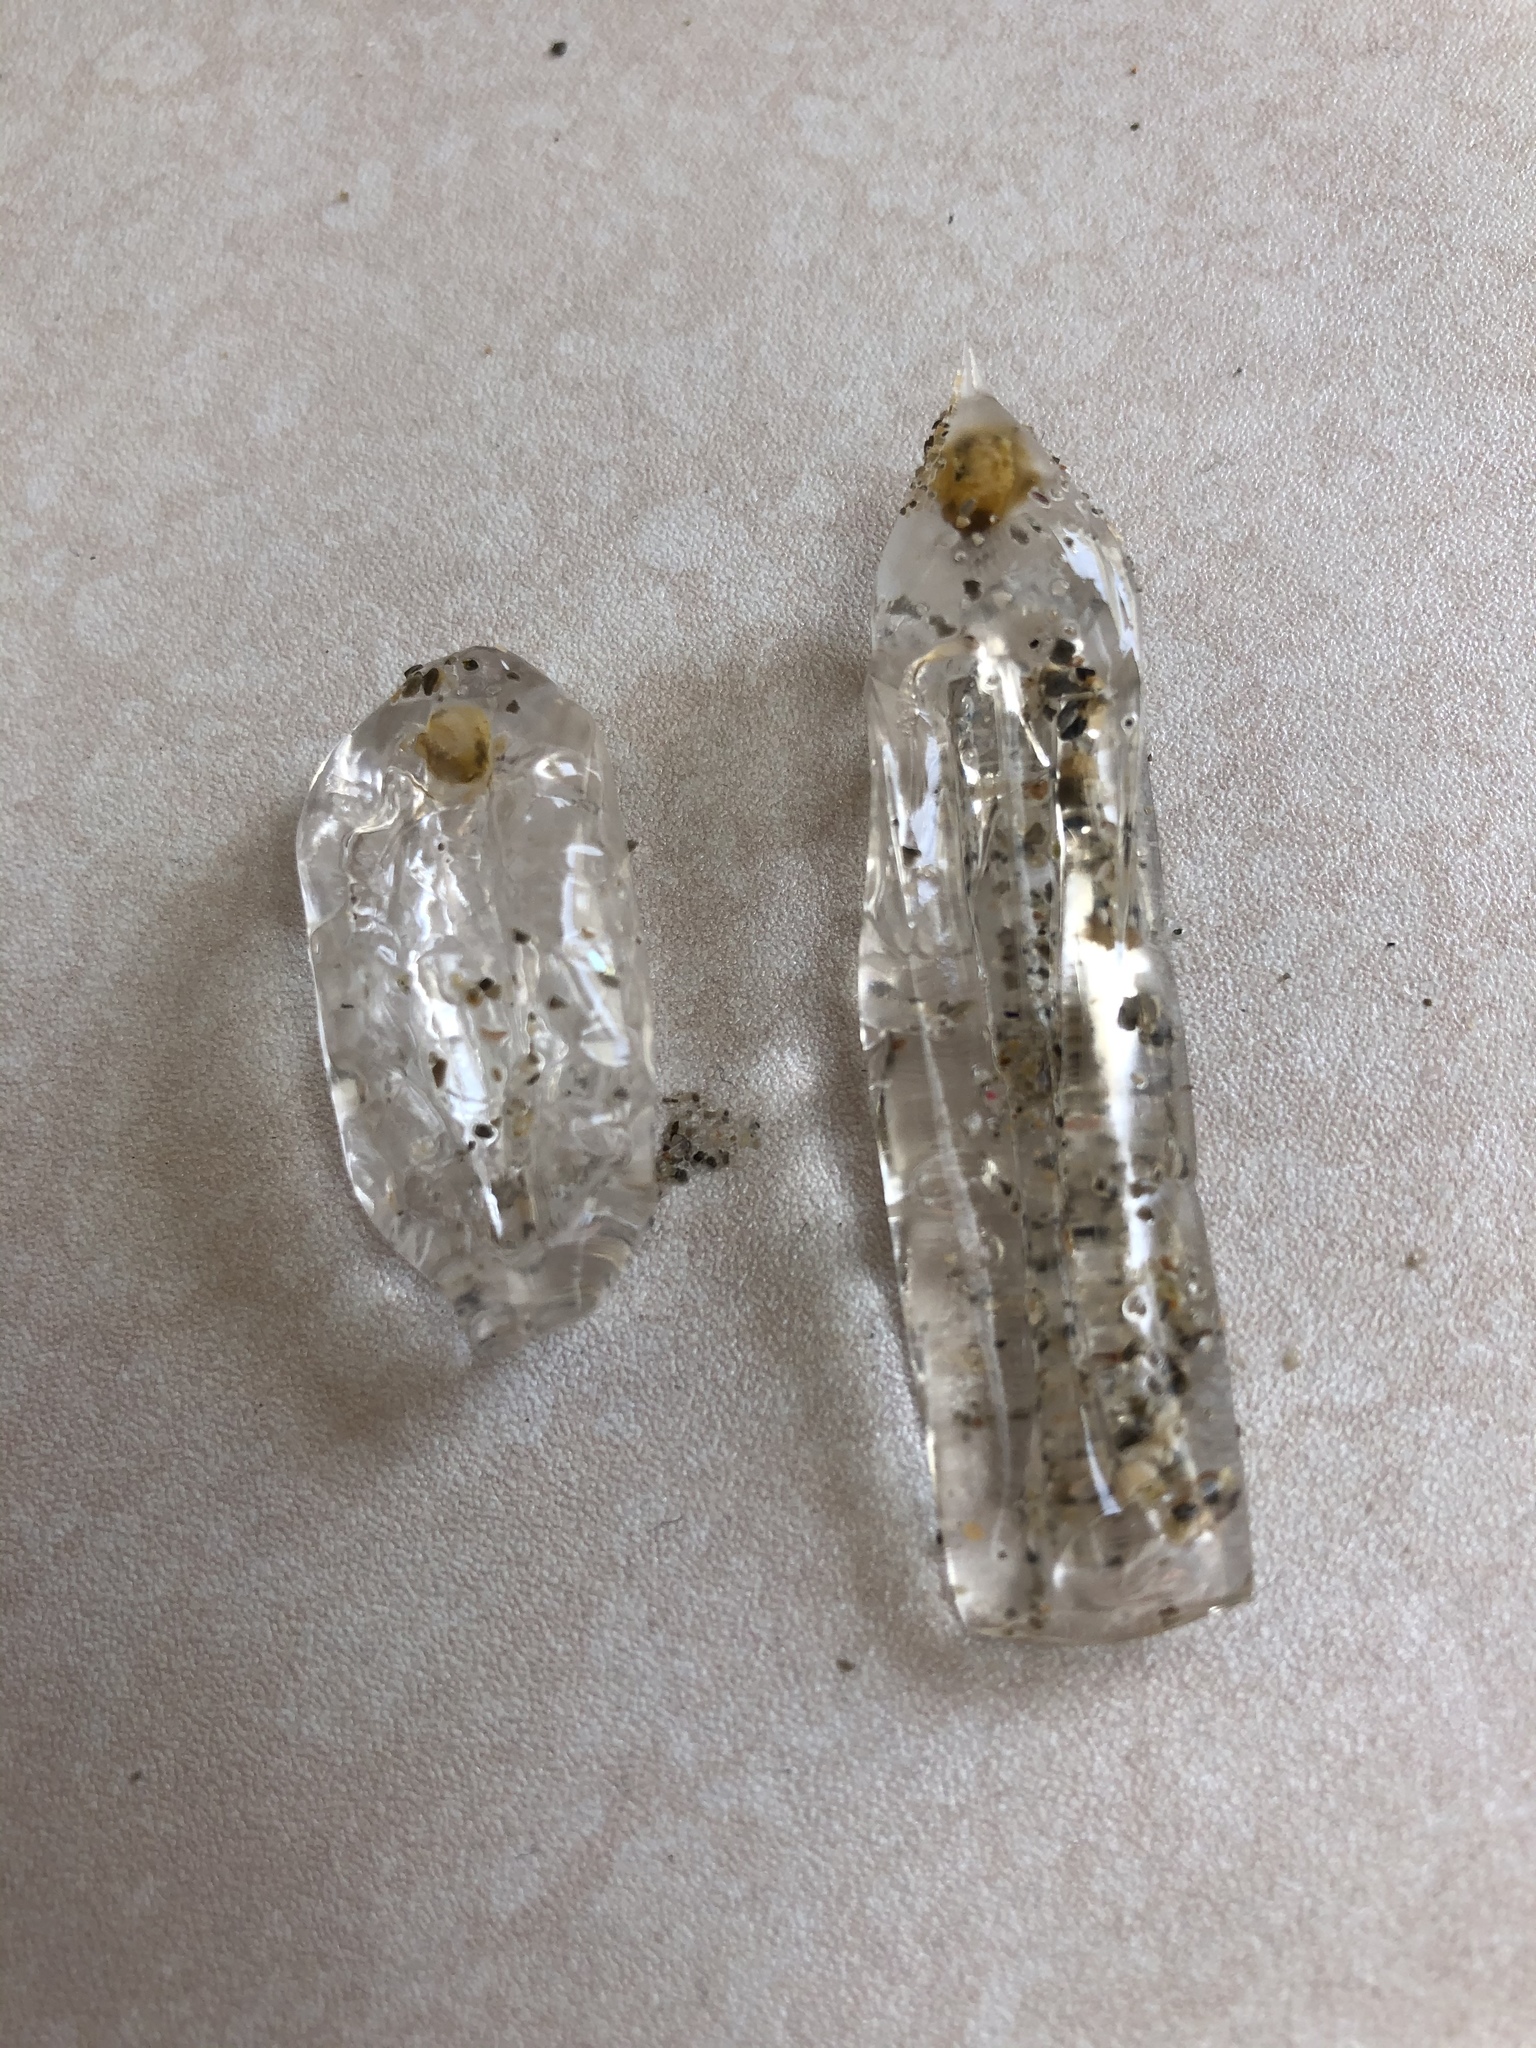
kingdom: Animalia
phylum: Chordata
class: Thaliacea
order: Salpida
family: Salpidae
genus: Soestia
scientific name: Soestia zonaria
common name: Deepsea solitary salp
